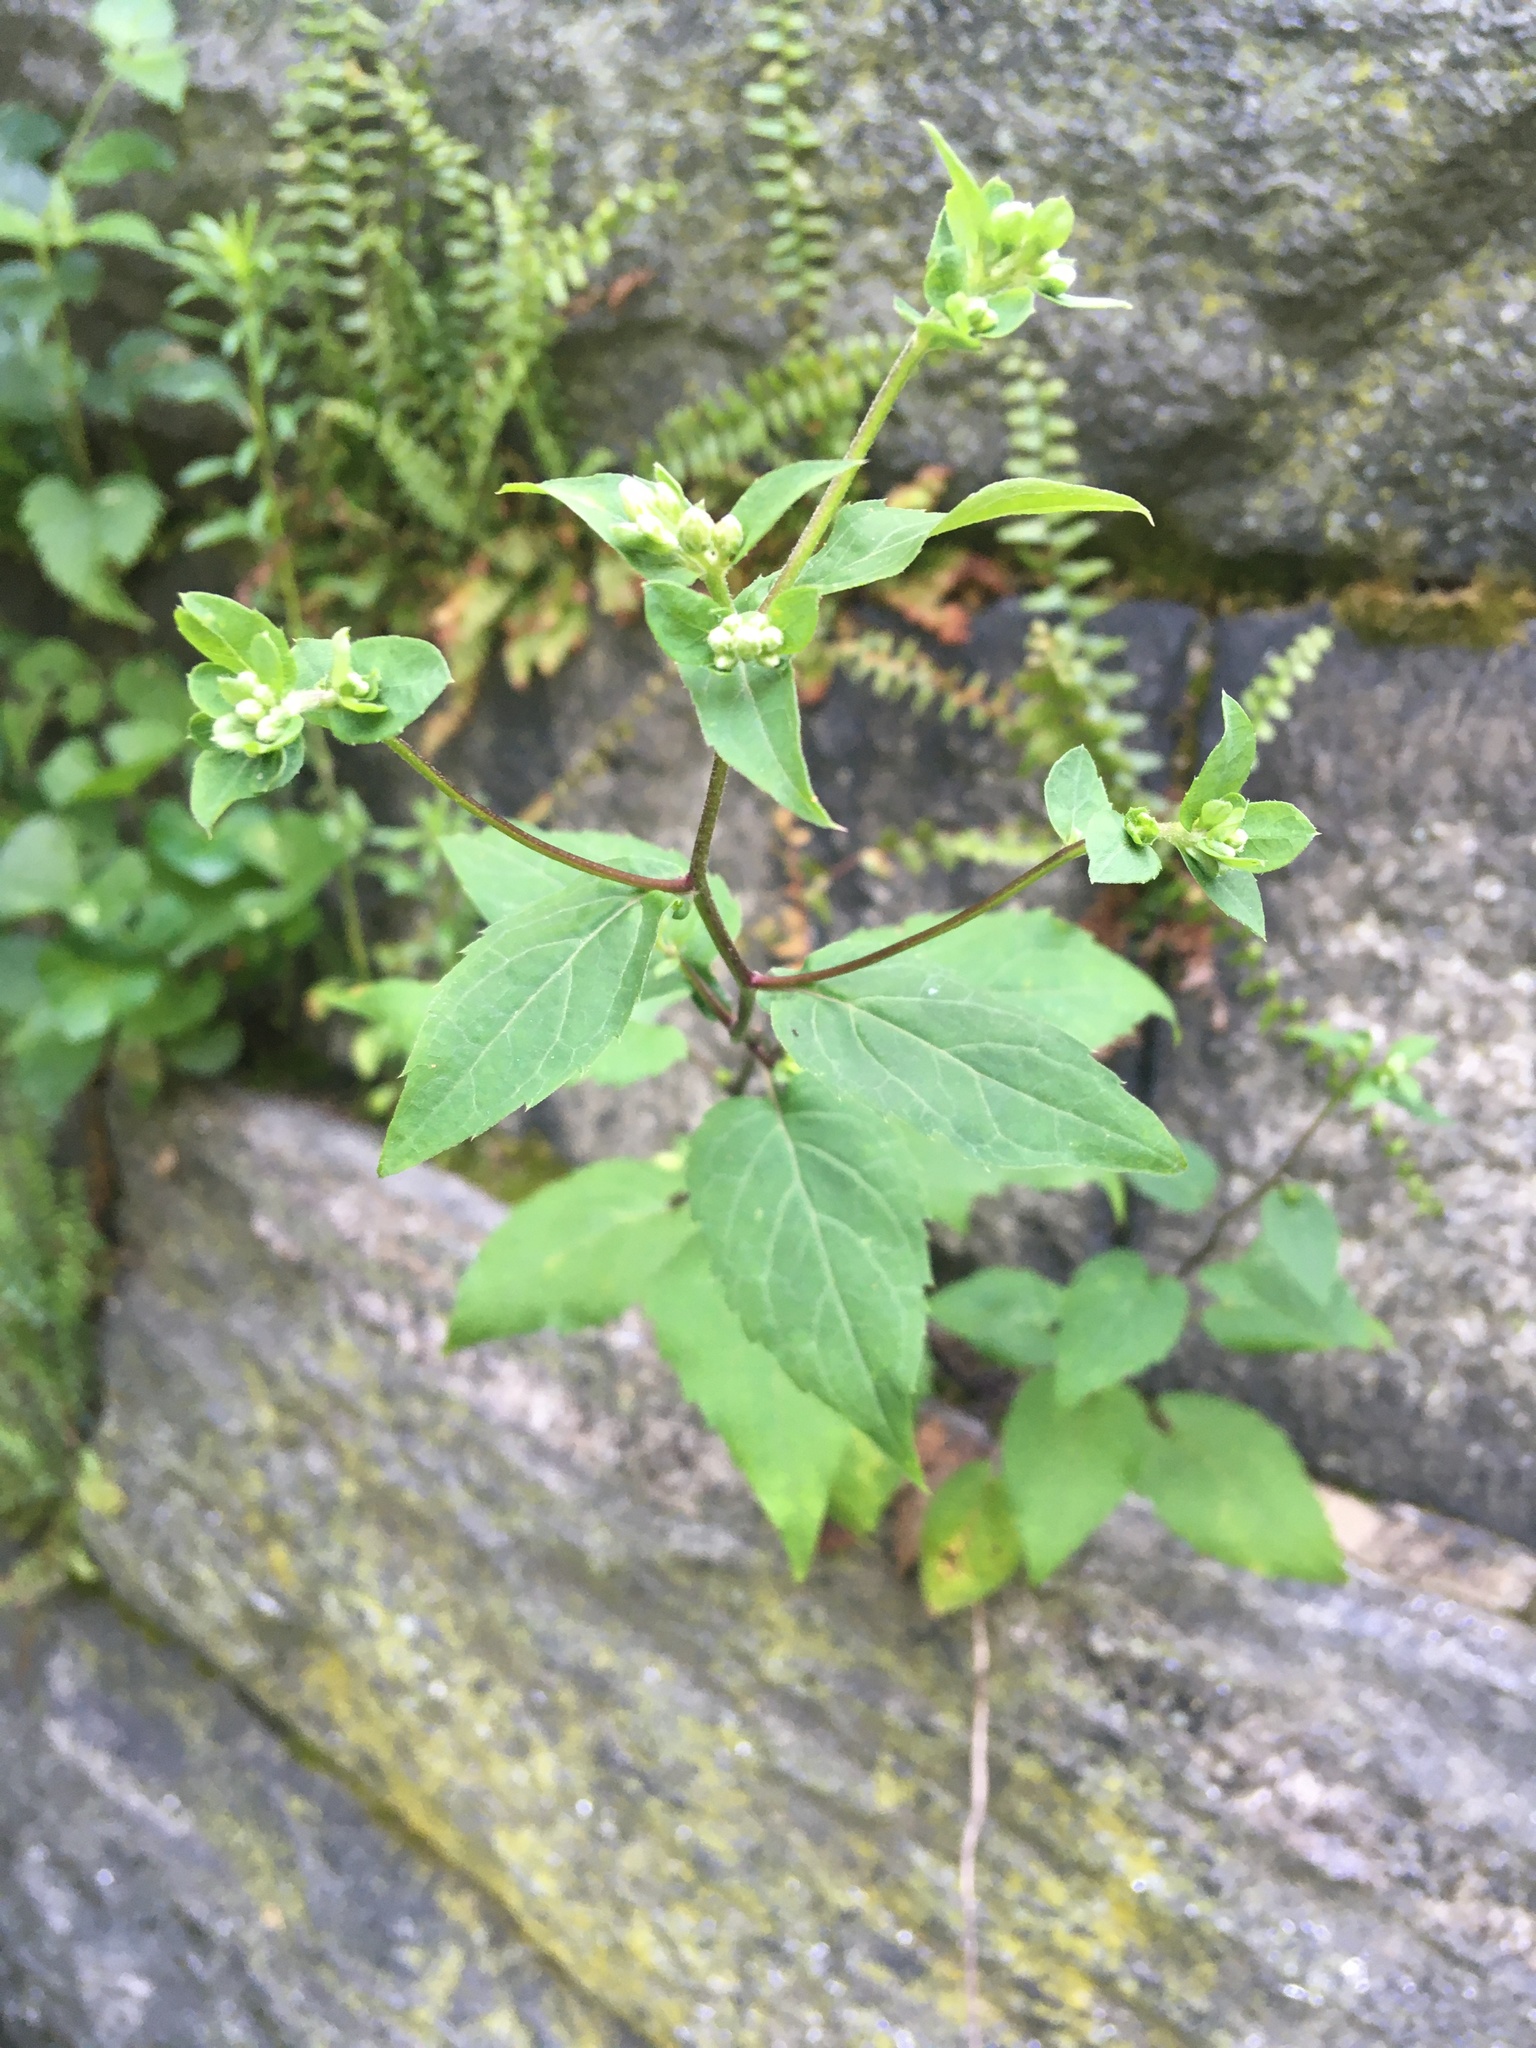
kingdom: Plantae
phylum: Tracheophyta
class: Magnoliopsida
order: Asterales
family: Asteraceae
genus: Eurybia
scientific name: Eurybia divaricata
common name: White wood aster
